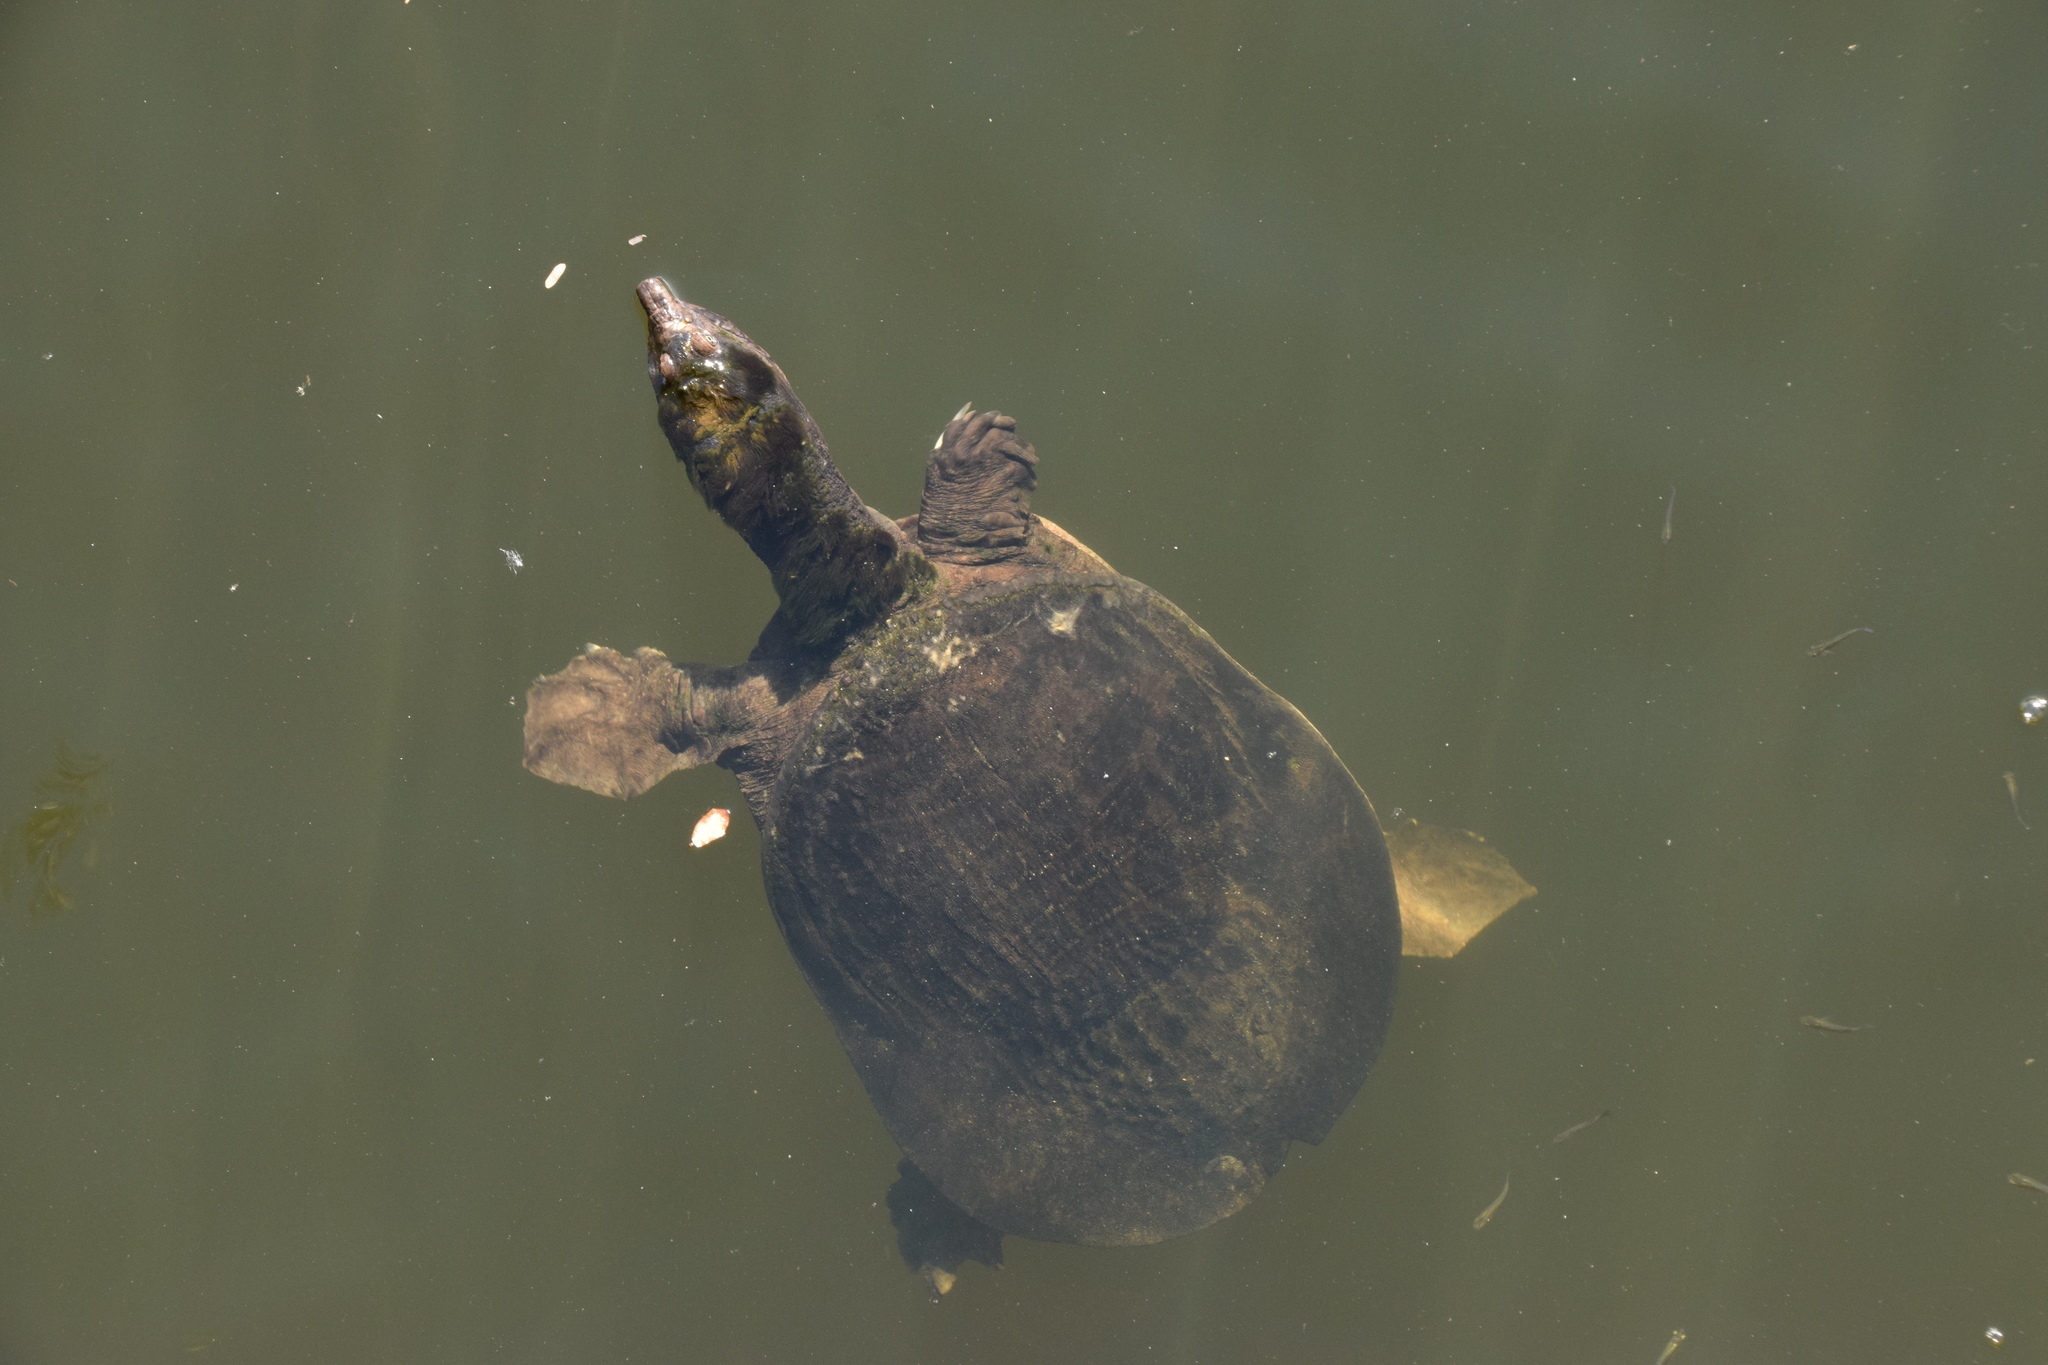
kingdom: Animalia
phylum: Chordata
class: Testudines
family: Trionychidae
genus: Apalone
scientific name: Apalone ferox
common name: Florida softshell turtle
